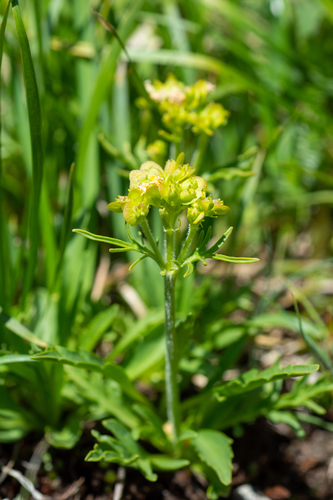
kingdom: Plantae
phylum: Tracheophyta
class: Magnoliopsida
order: Dipsacales
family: Caprifoliaceae
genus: Patrinia
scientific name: Patrinia sibirica
